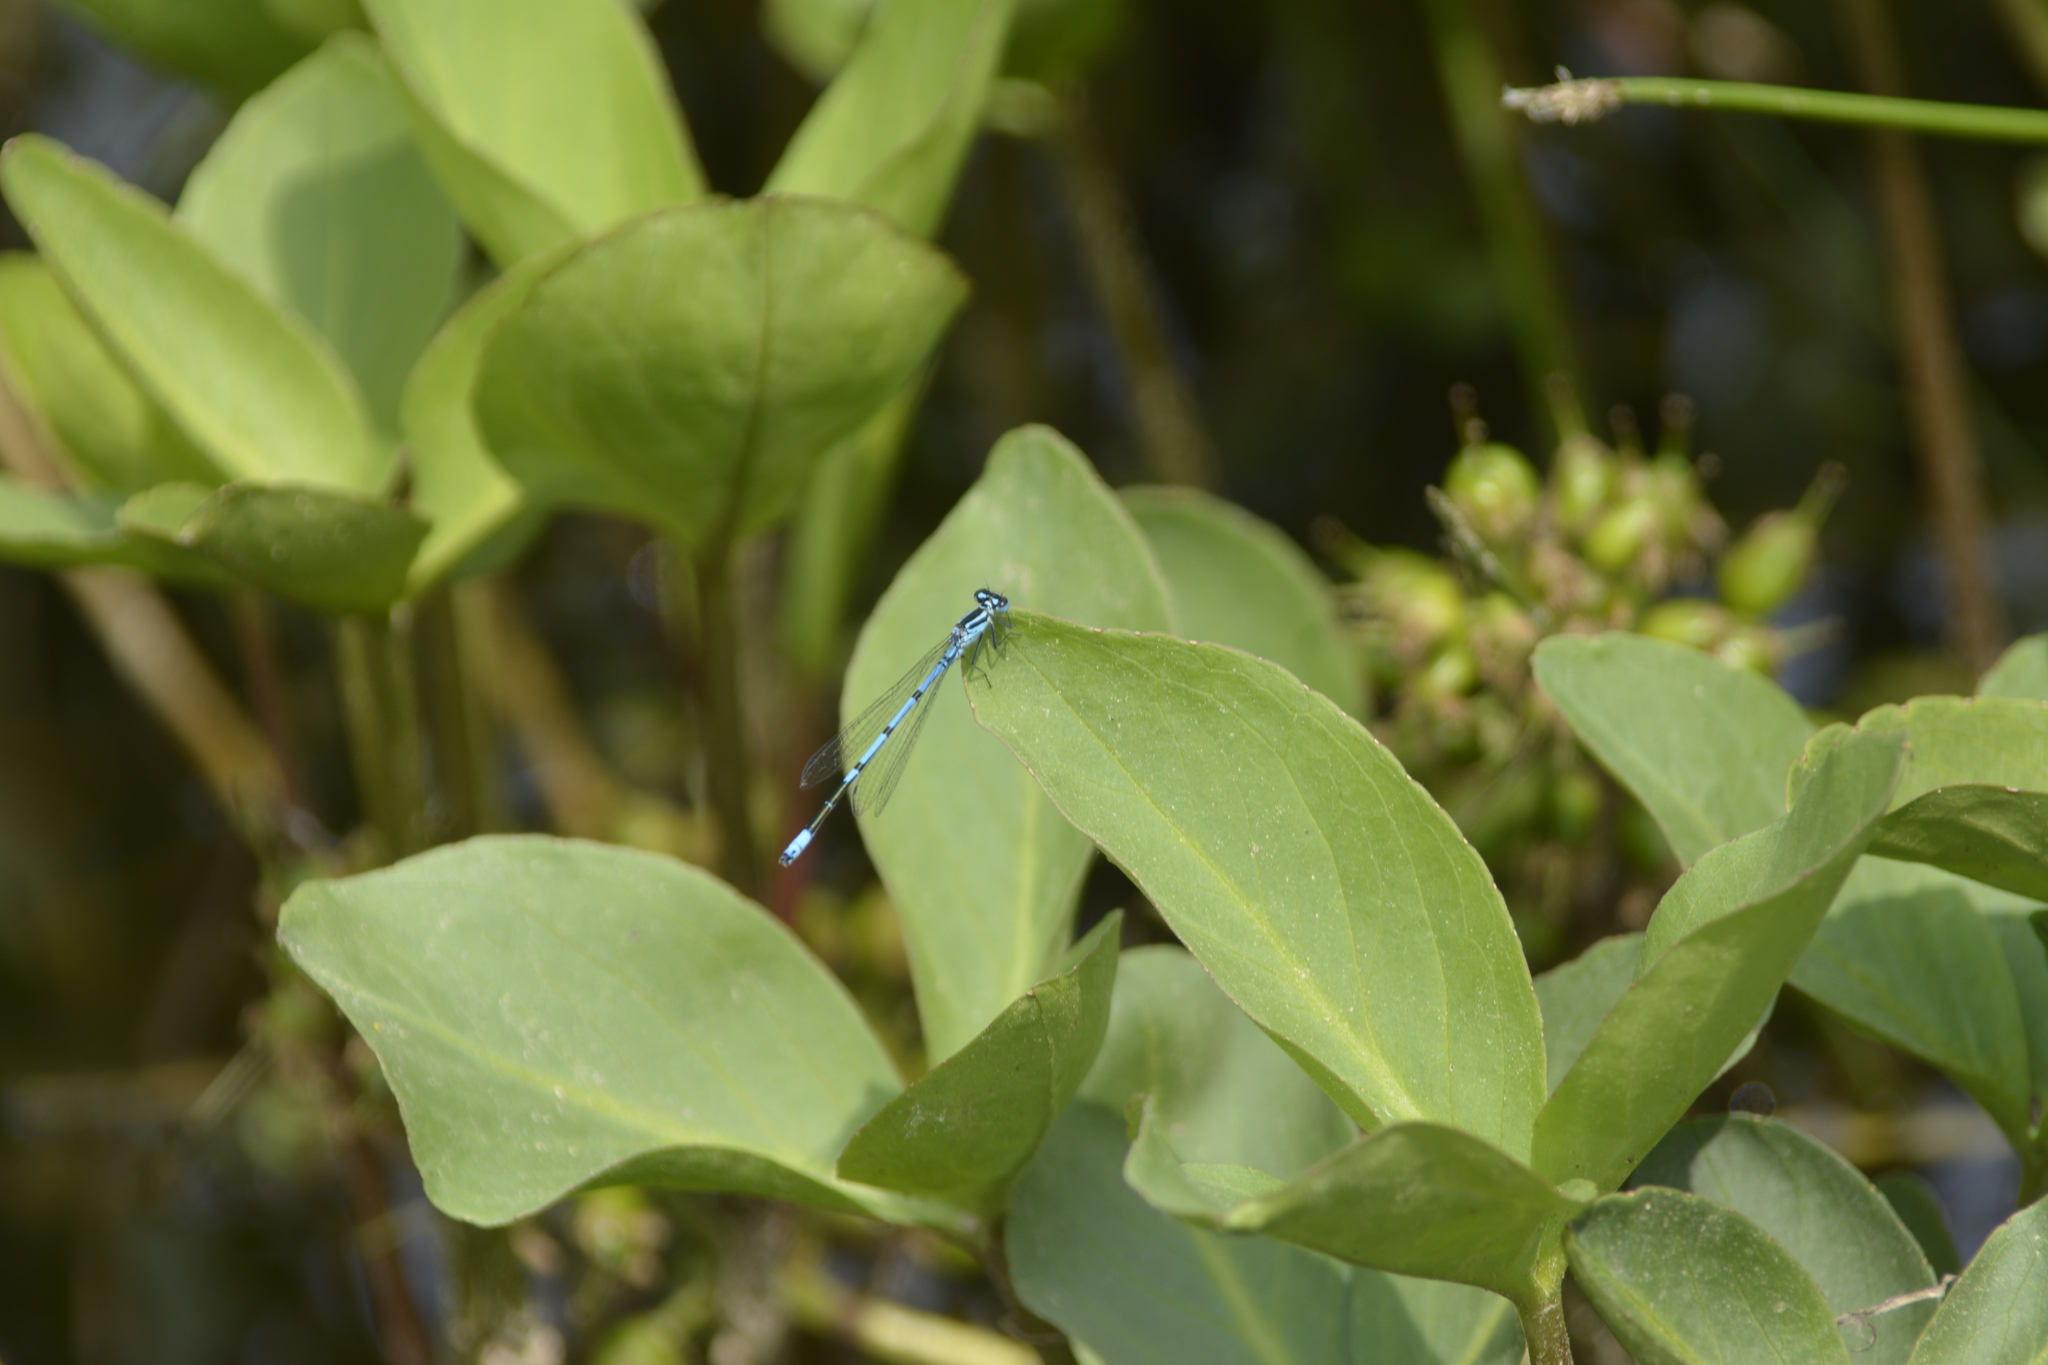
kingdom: Animalia
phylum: Arthropoda
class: Insecta
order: Odonata
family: Coenagrionidae
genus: Coenagrion
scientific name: Coenagrion puella
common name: Azure damselfly
